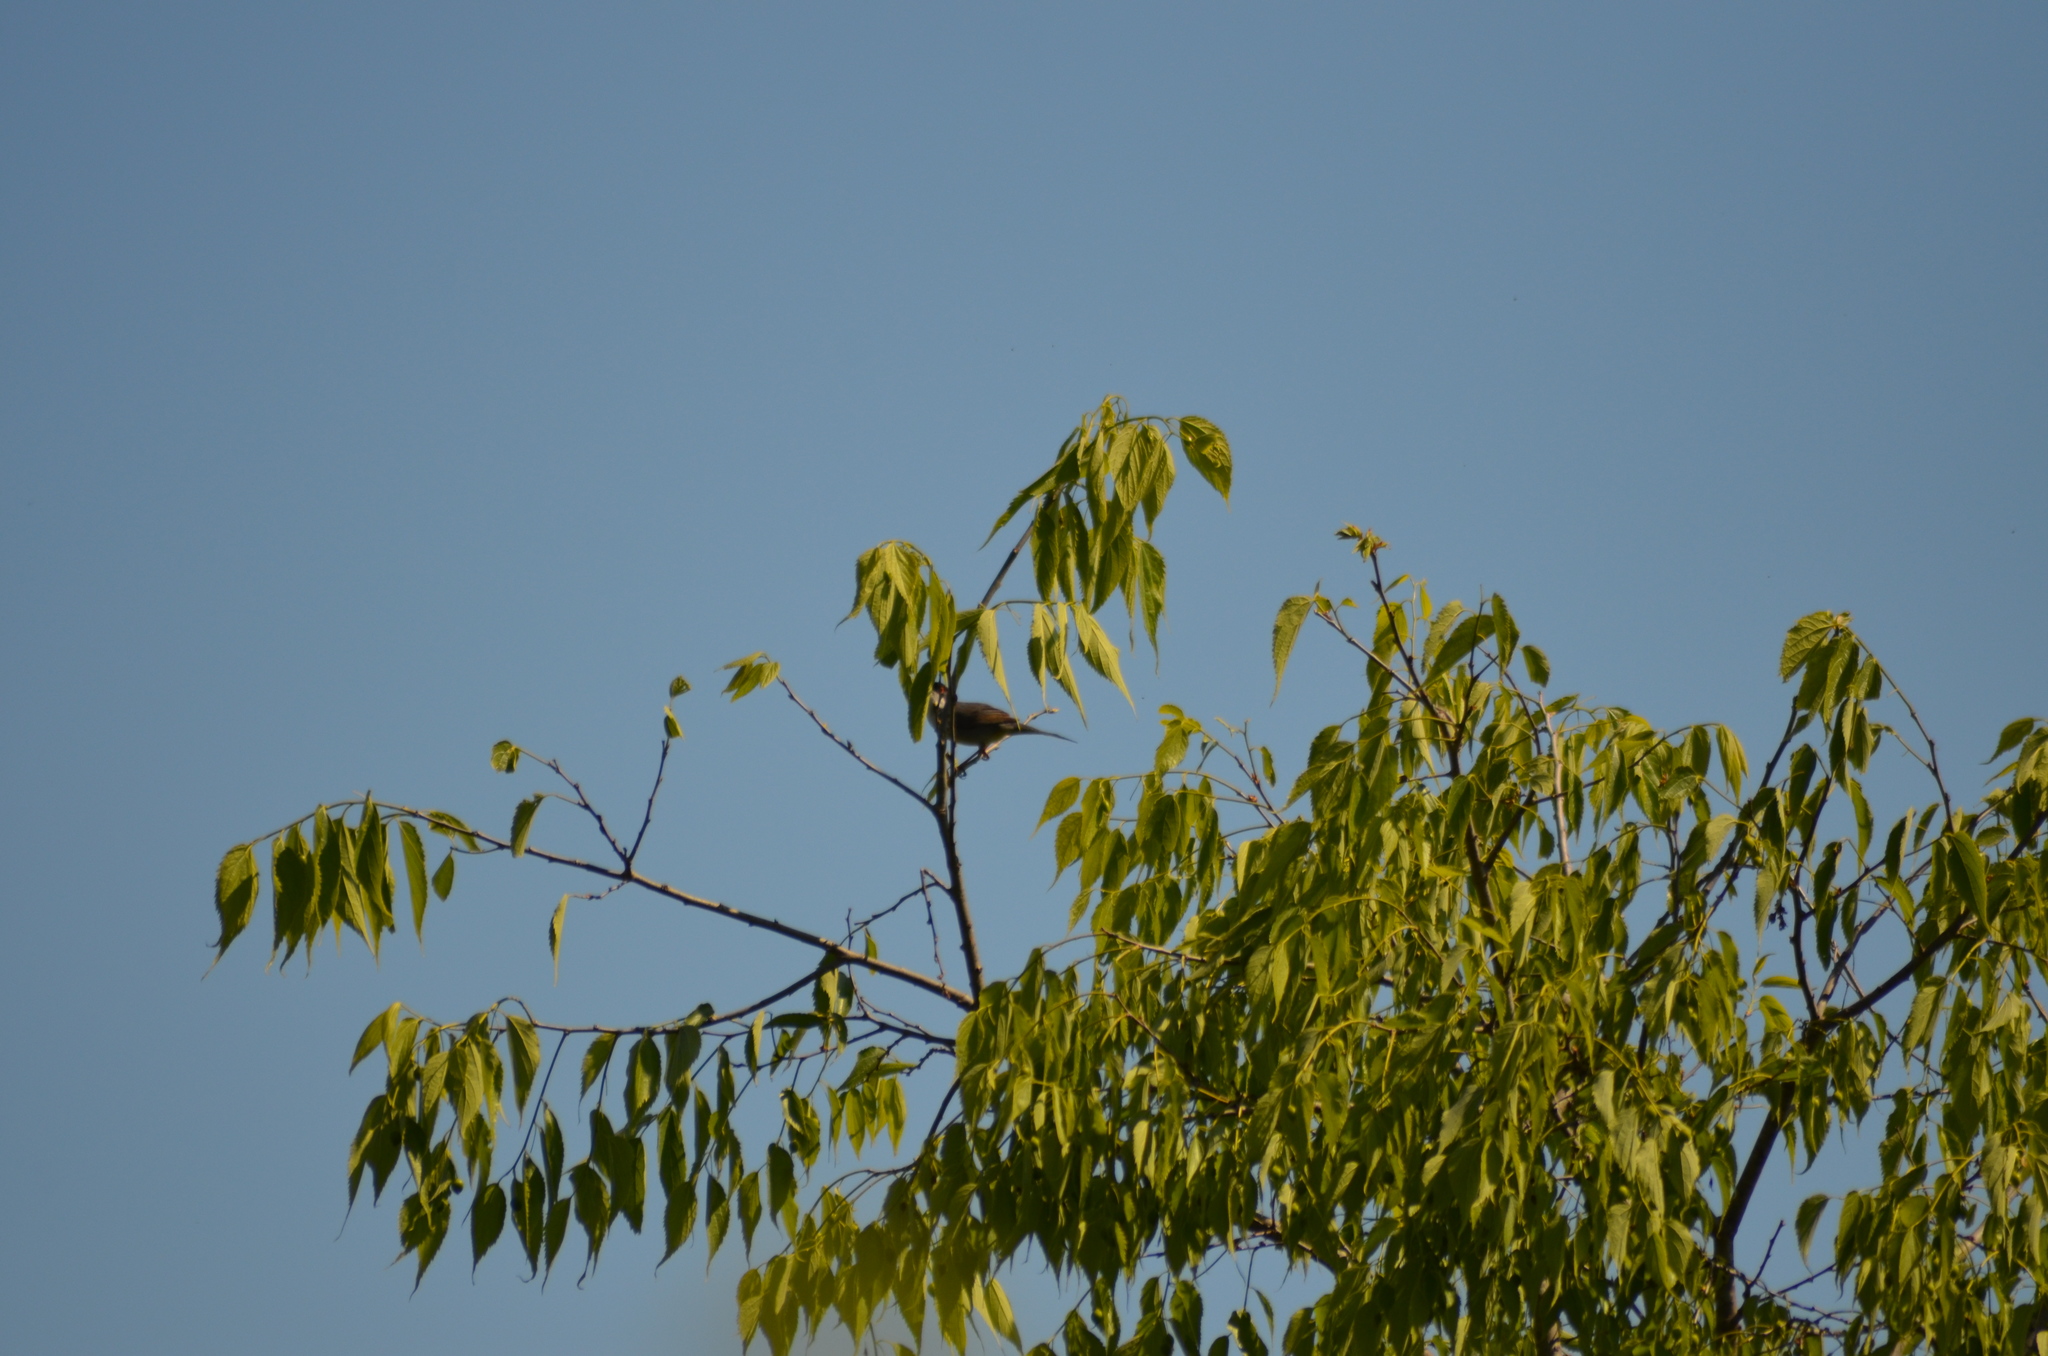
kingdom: Animalia
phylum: Chordata
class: Aves
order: Passeriformes
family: Sylviidae
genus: Curruca
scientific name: Curruca melanocephala
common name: Sardinian warbler
